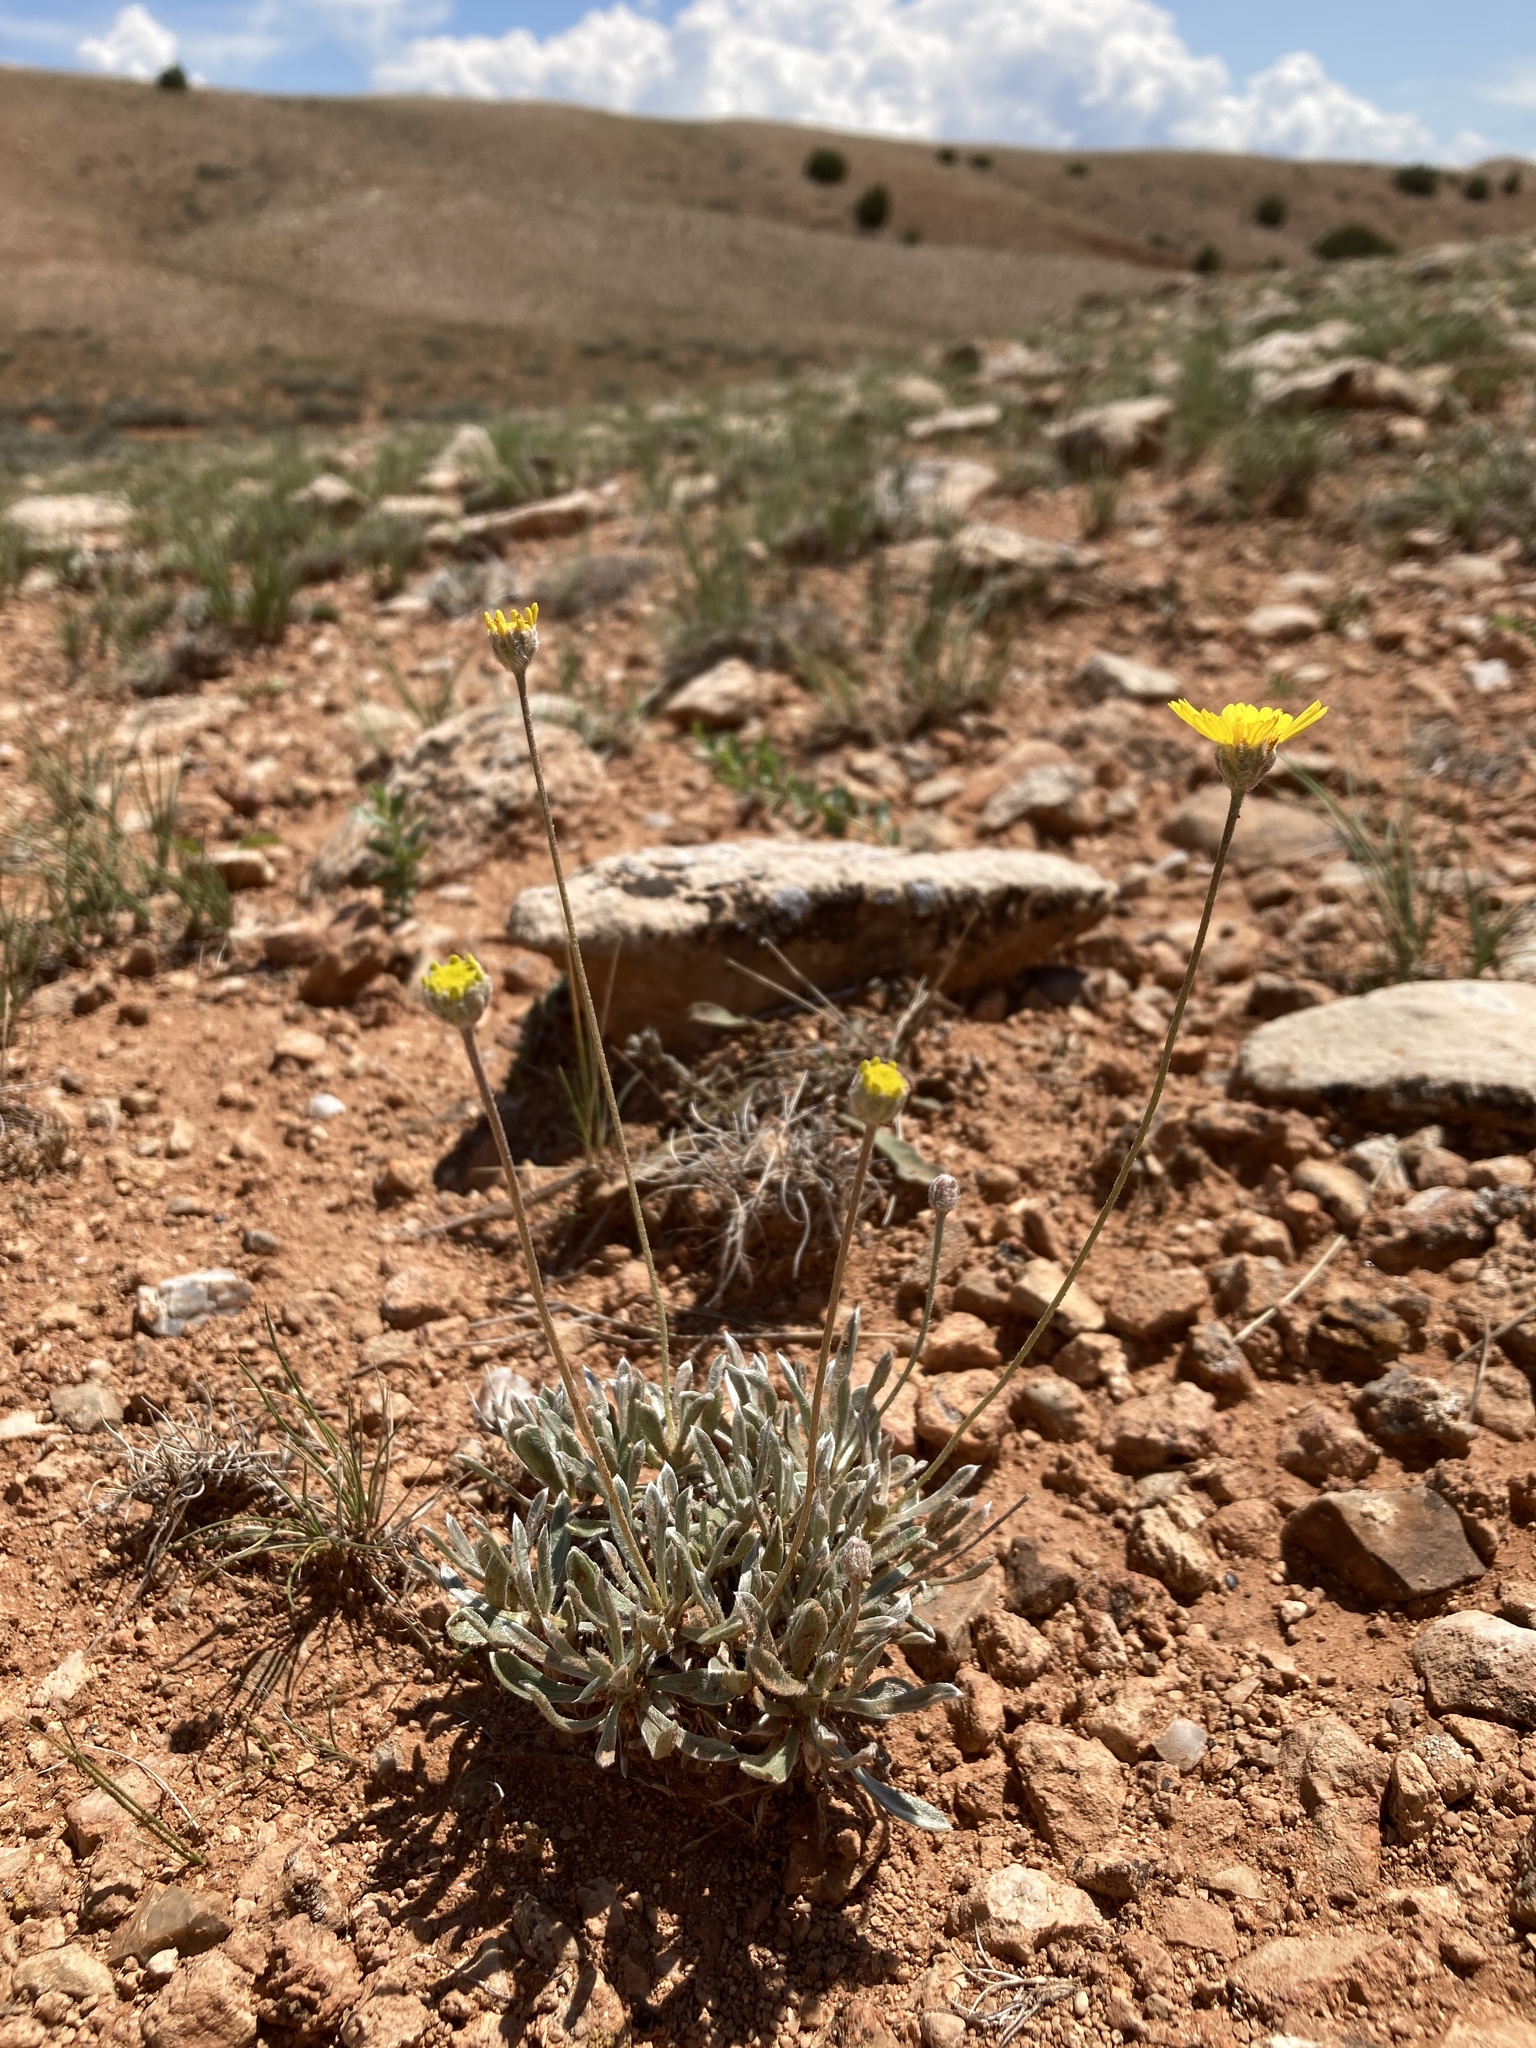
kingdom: Plantae
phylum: Tracheophyta
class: Magnoliopsida
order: Asterales
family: Asteraceae
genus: Tetraneuris
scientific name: Tetraneuris acaulis
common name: Butte marigold
